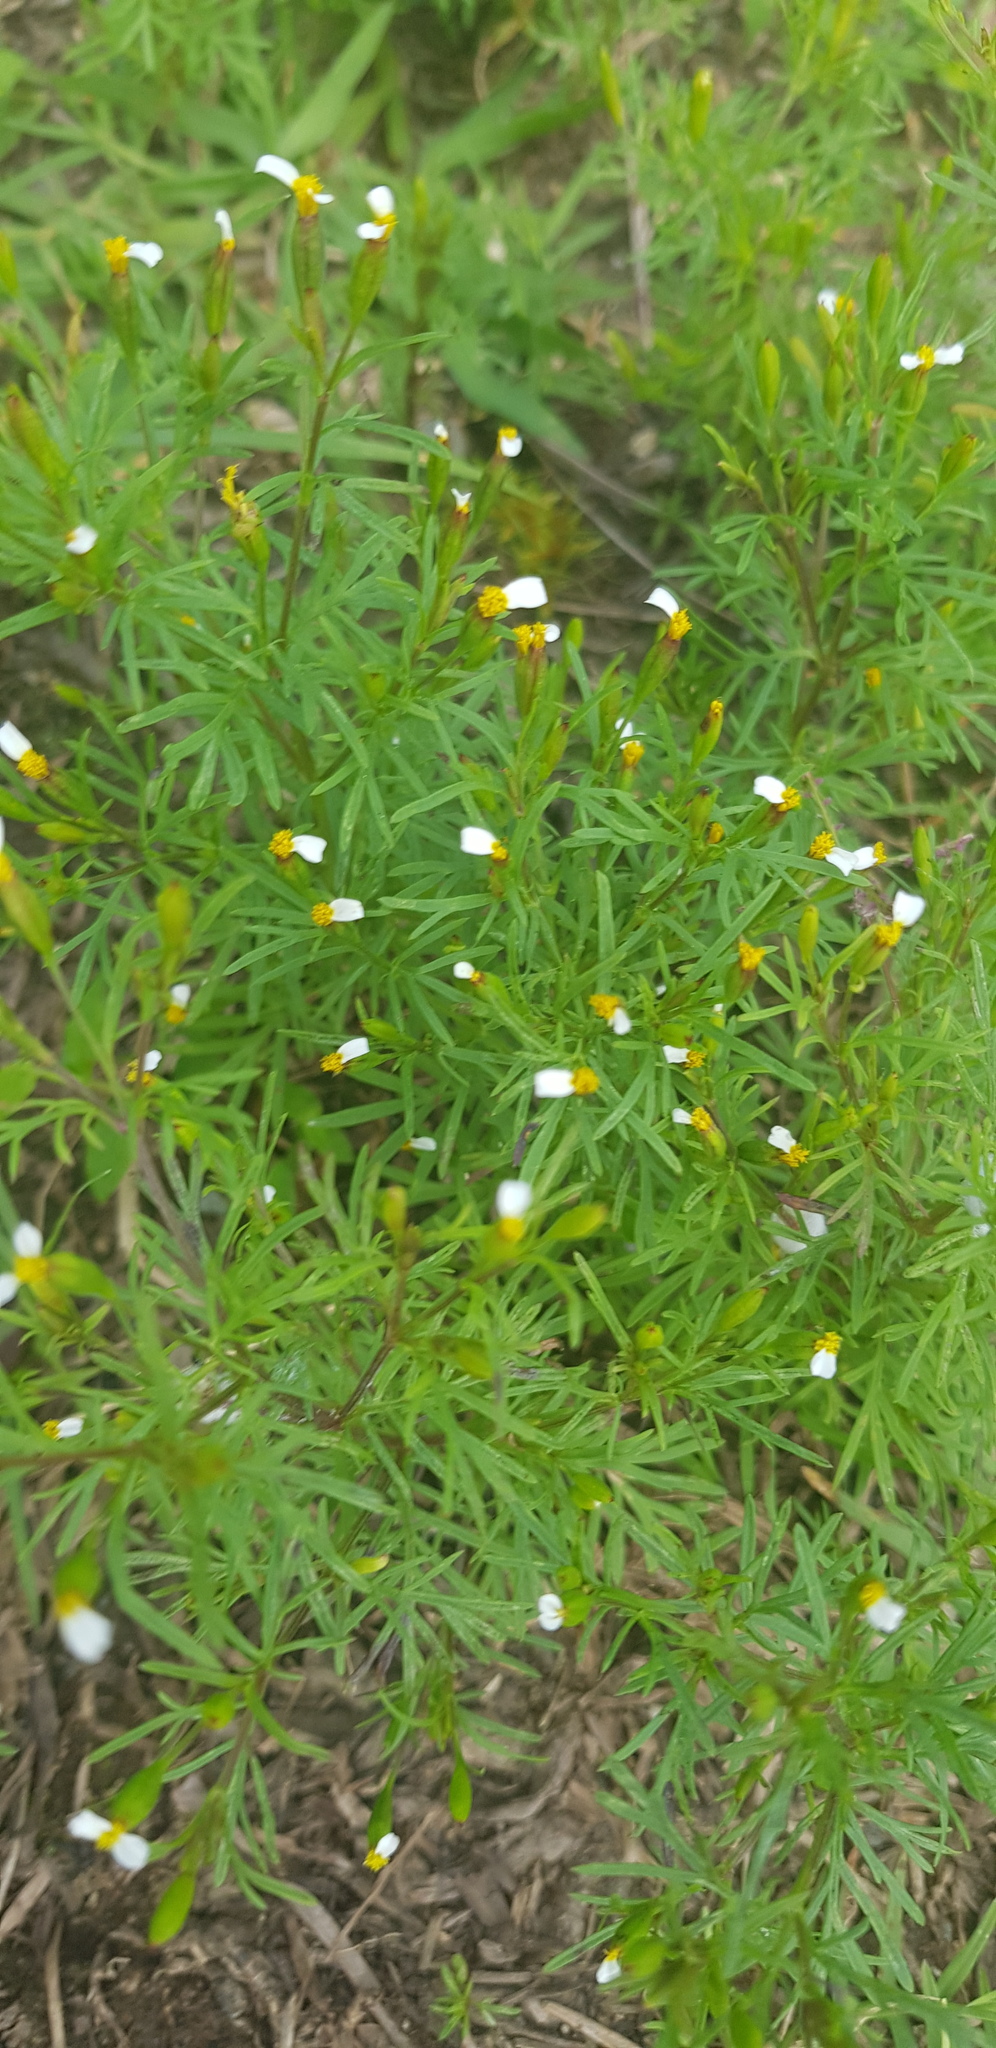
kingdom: Plantae
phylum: Tracheophyta
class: Magnoliopsida
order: Asterales
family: Asteraceae
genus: Schkuhria
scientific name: Schkuhria pinnata
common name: Dwarf marigold
